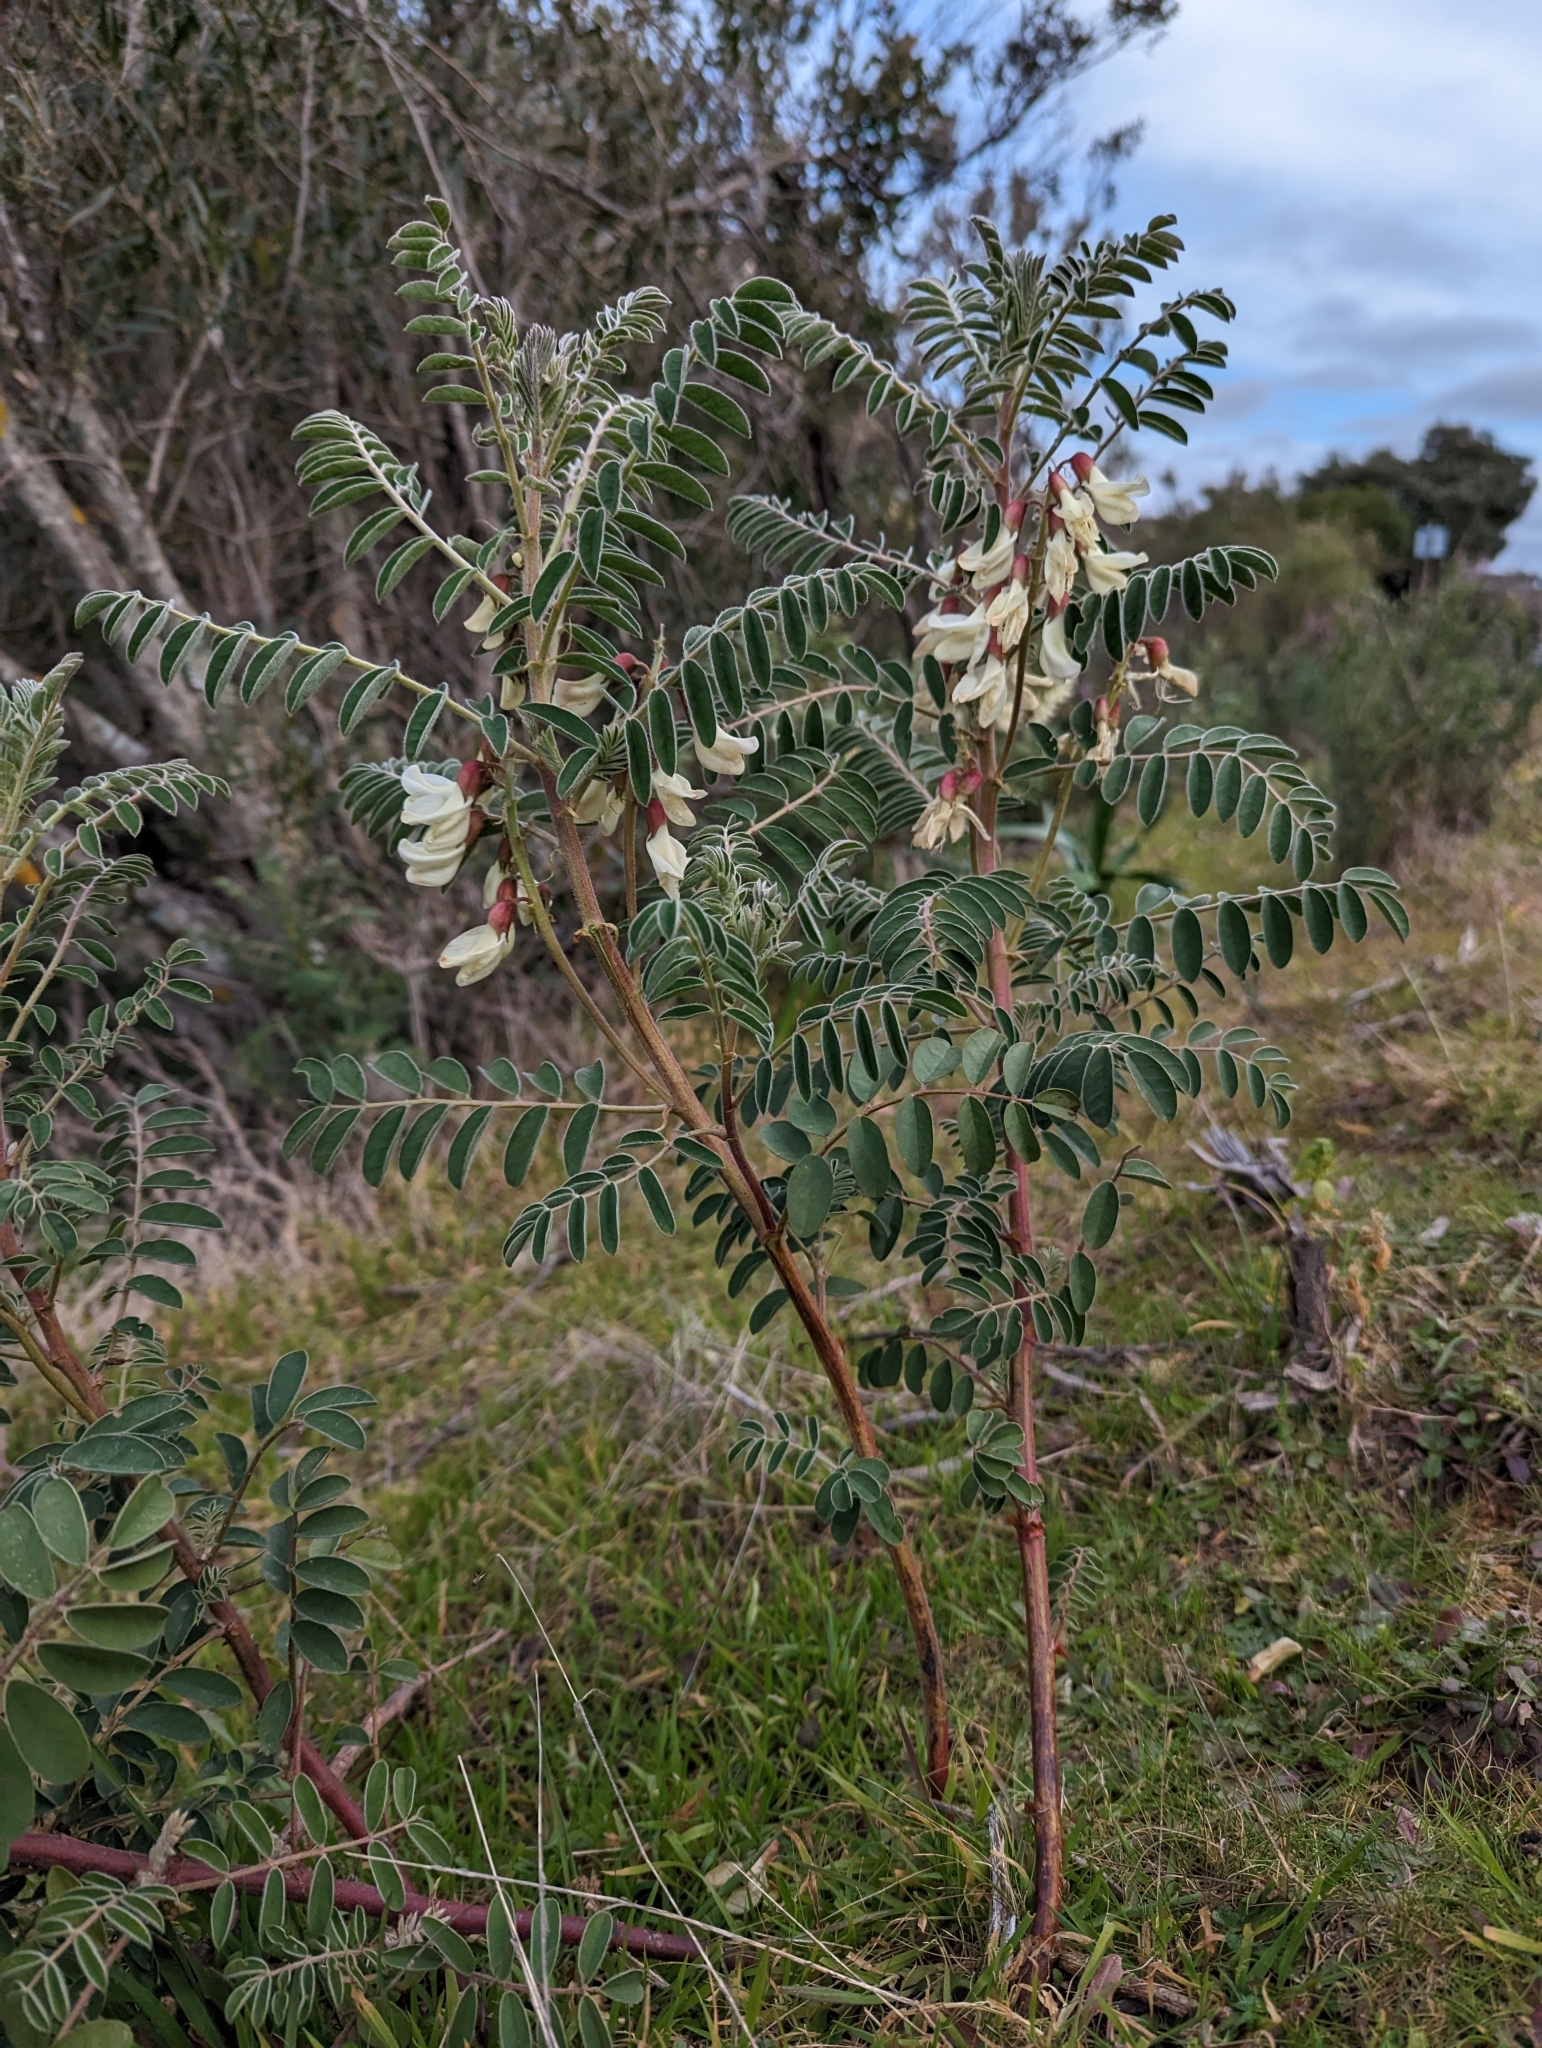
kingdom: Plantae
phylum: Tracheophyta
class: Magnoliopsida
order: Fabales
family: Fabaceae
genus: Erophaca
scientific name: Erophaca baetica
